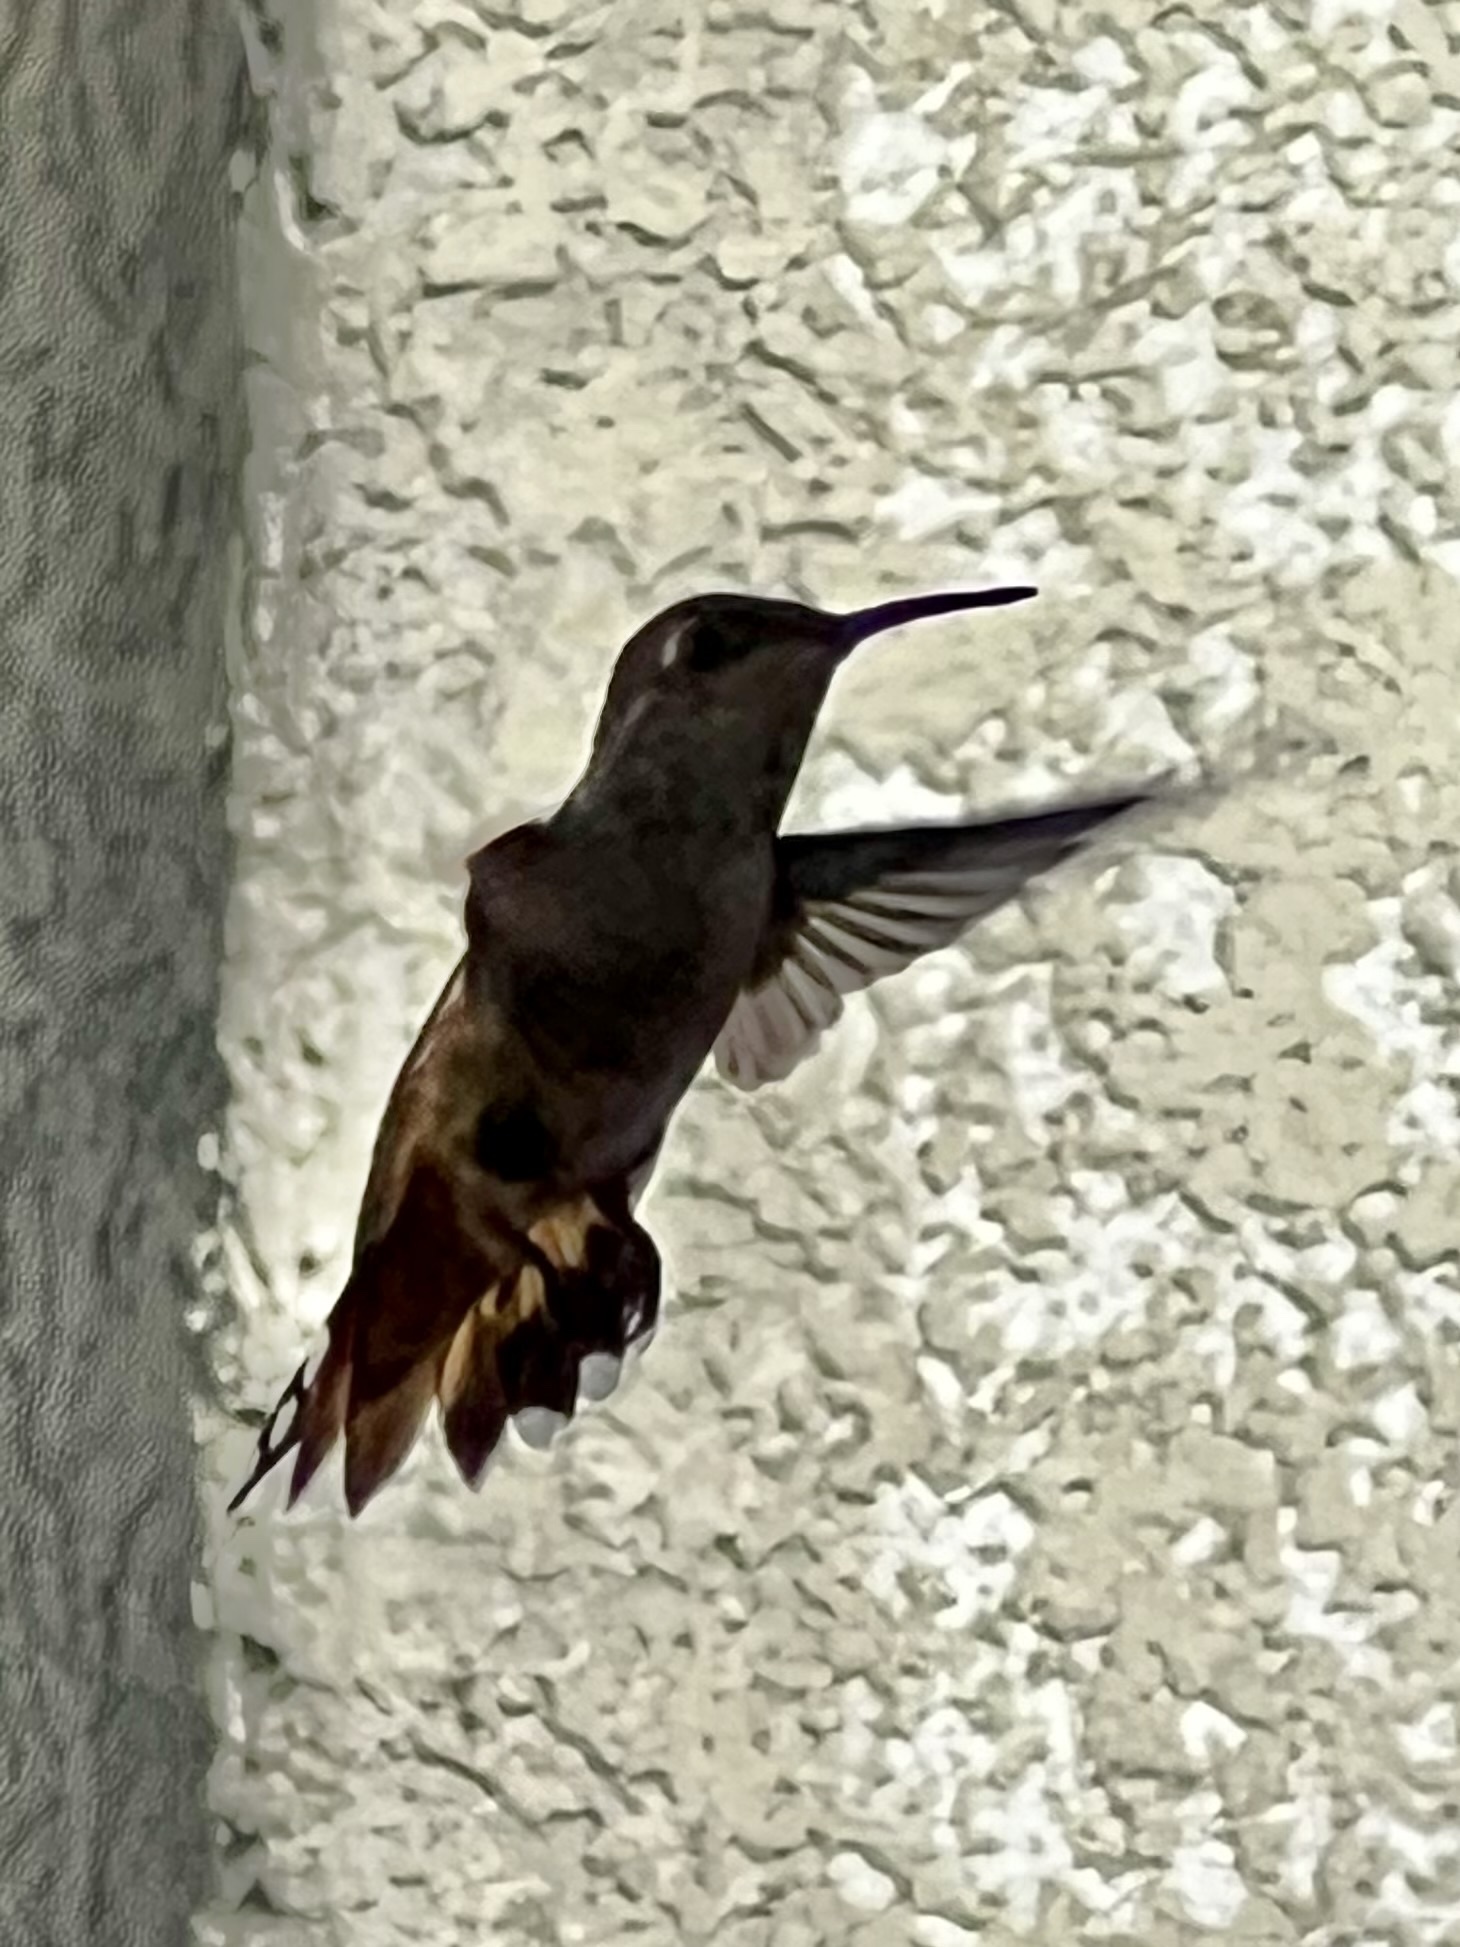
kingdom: Animalia
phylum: Chordata
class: Aves
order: Apodiformes
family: Trochilidae
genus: Selasphorus
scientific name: Selasphorus rufus
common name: Rufous hummingbird
